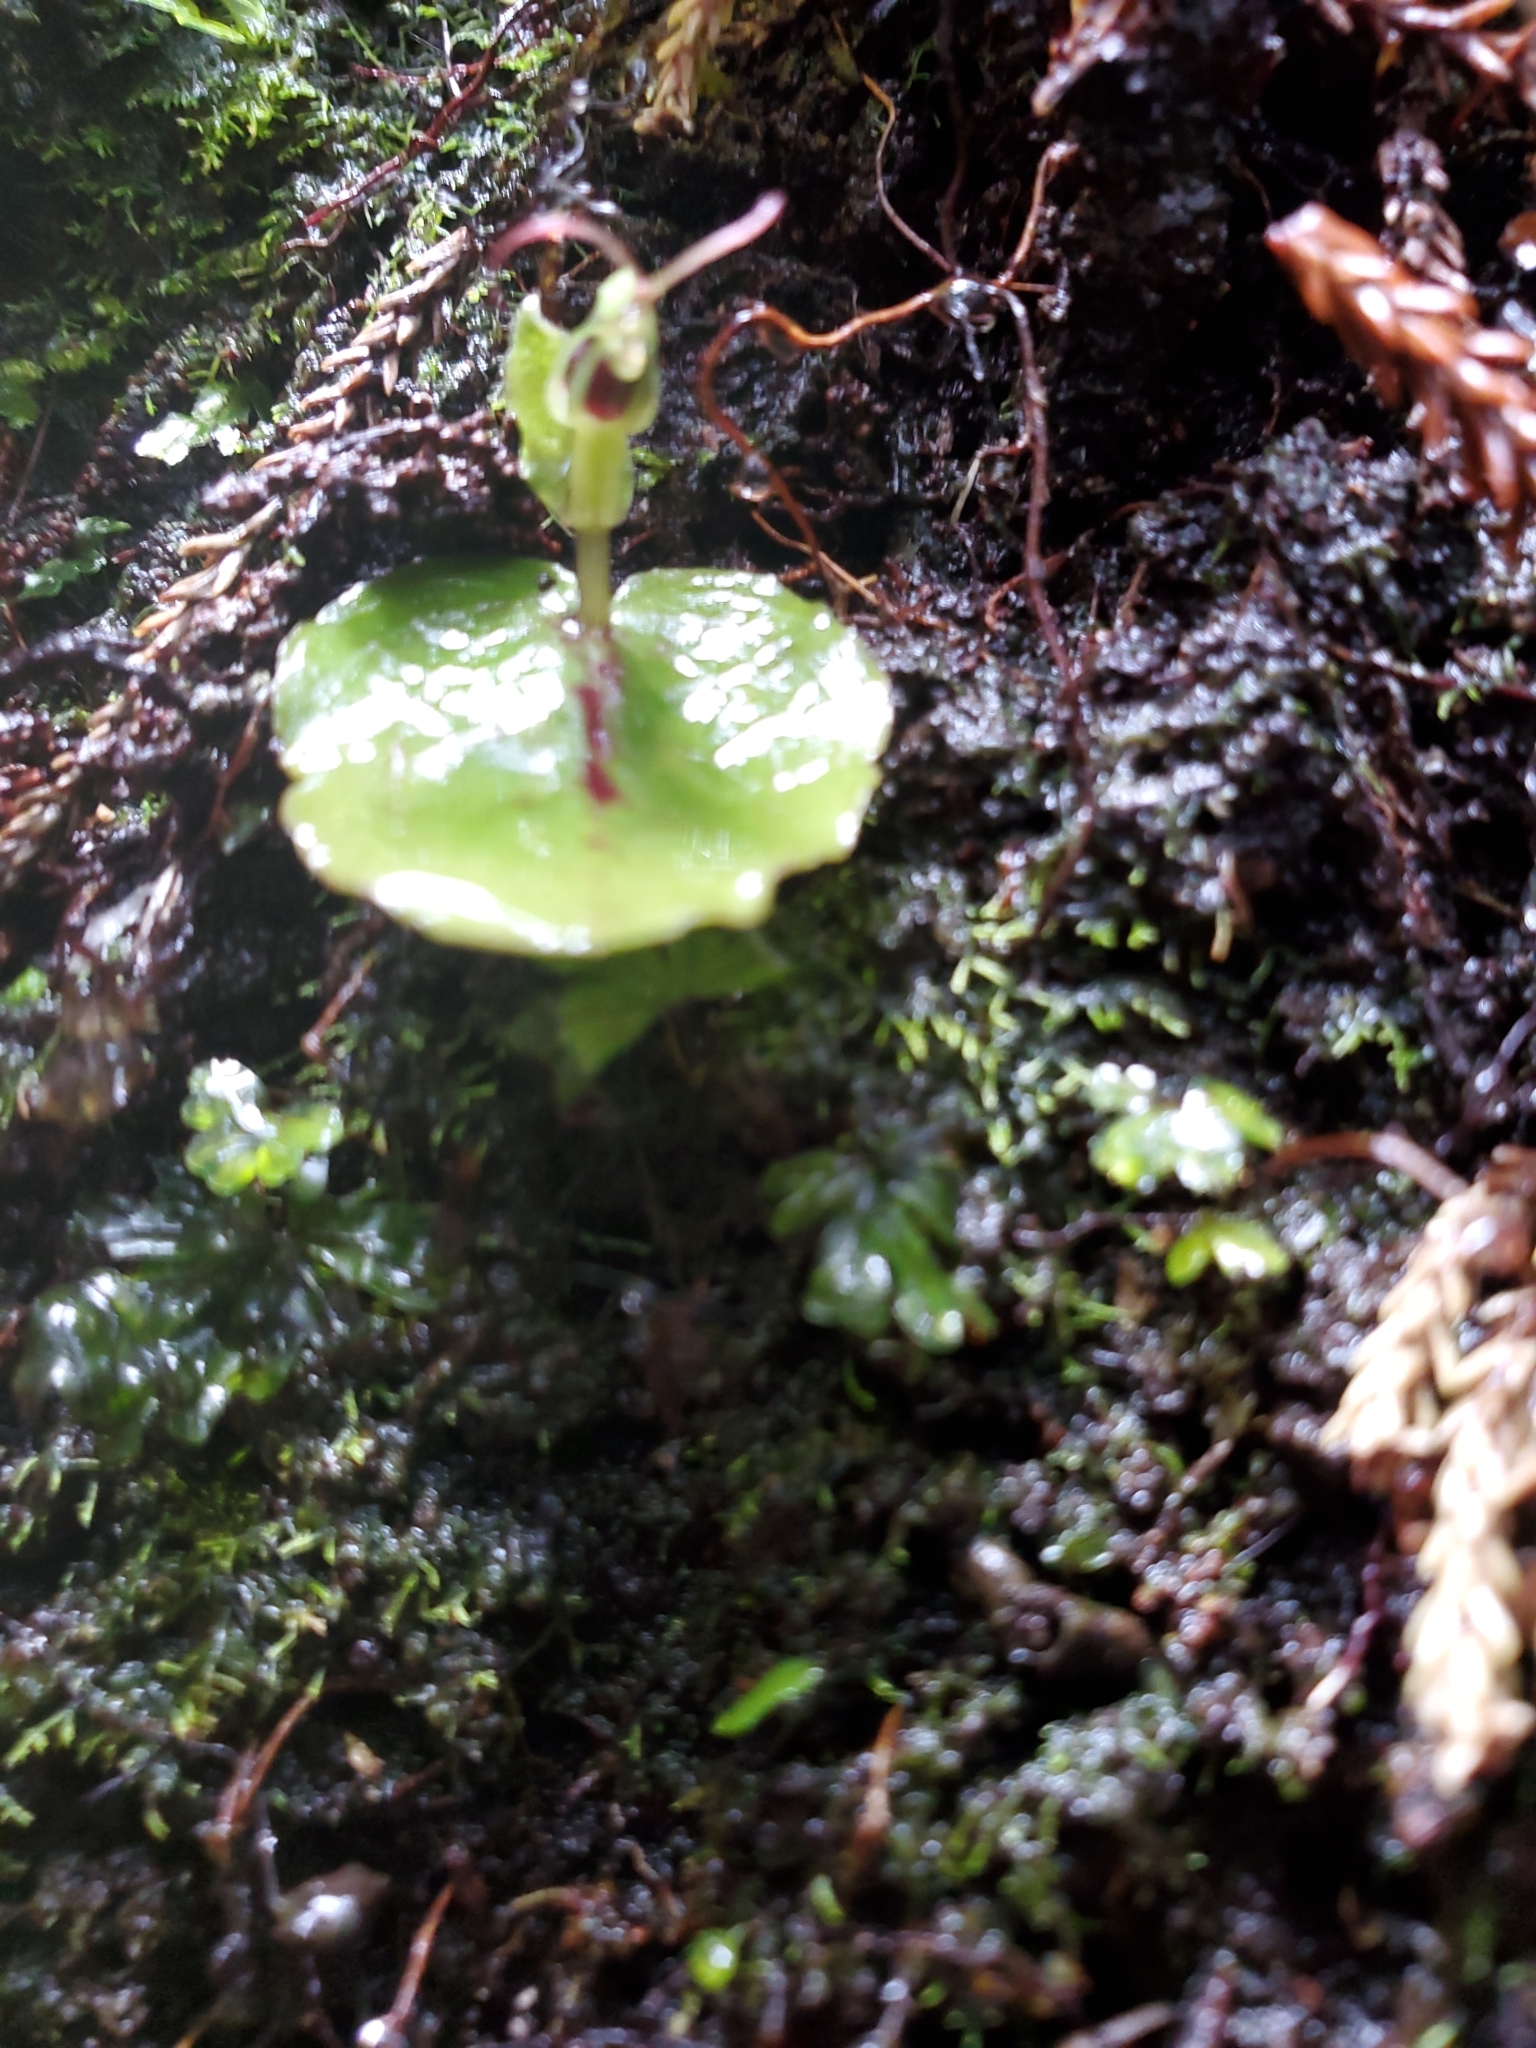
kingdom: Plantae
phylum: Tracheophyta
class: Liliopsida
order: Asparagales
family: Orchidaceae
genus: Corybas
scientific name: Corybas oblongus
